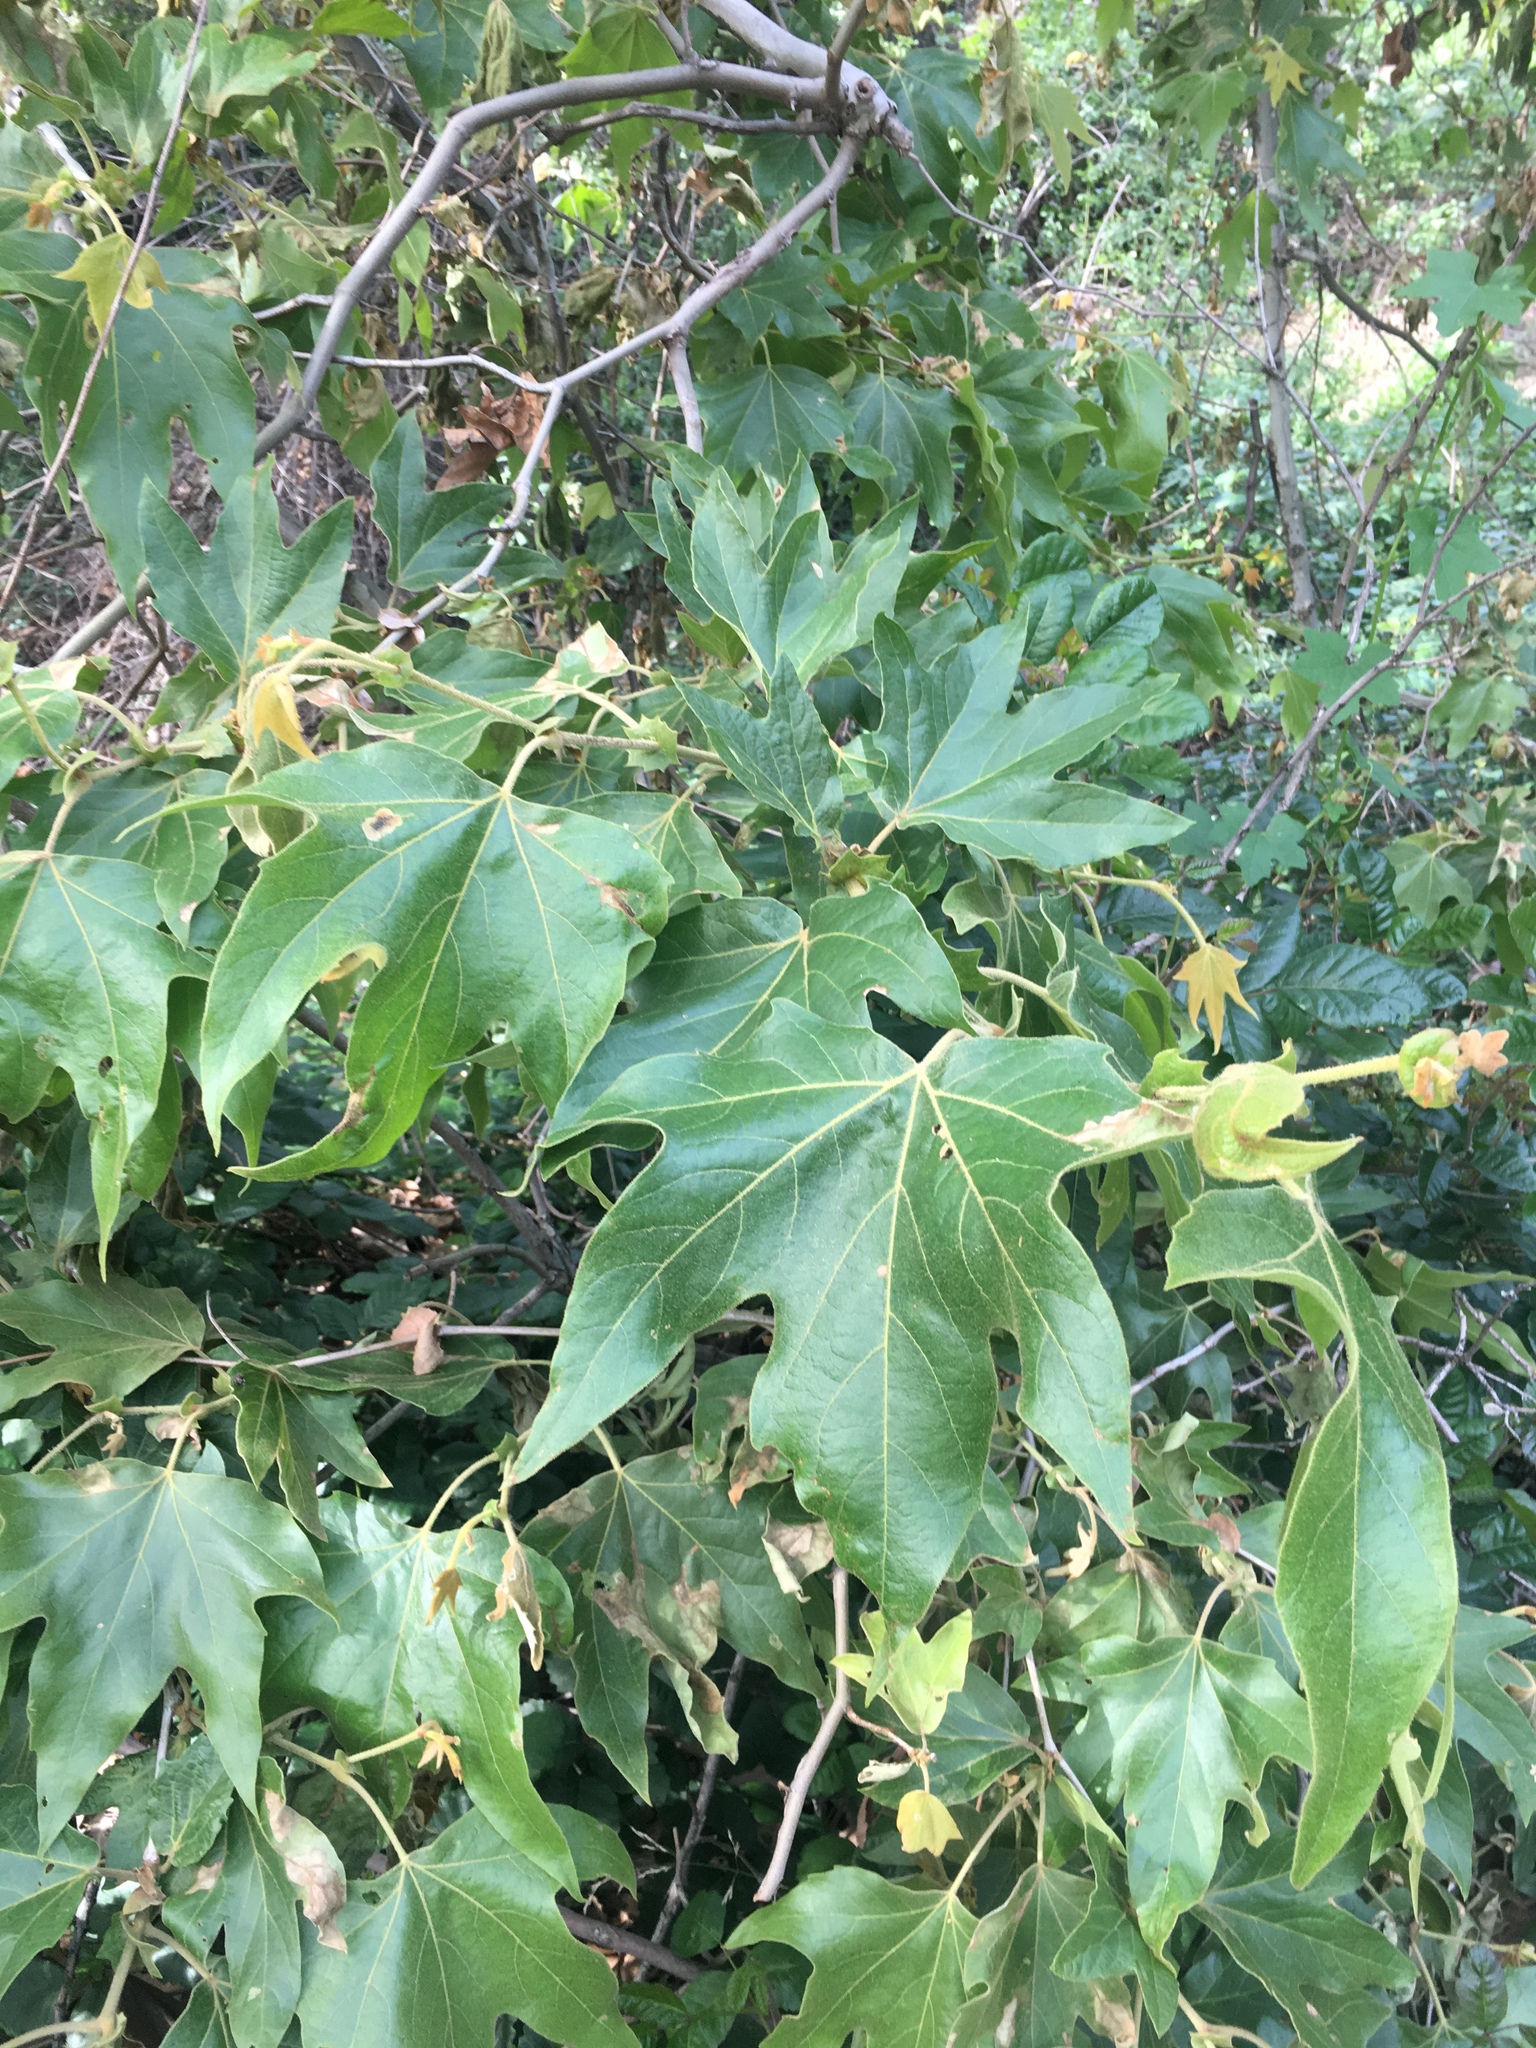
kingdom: Plantae
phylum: Tracheophyta
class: Magnoliopsida
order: Proteales
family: Platanaceae
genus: Platanus
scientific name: Platanus racemosa
